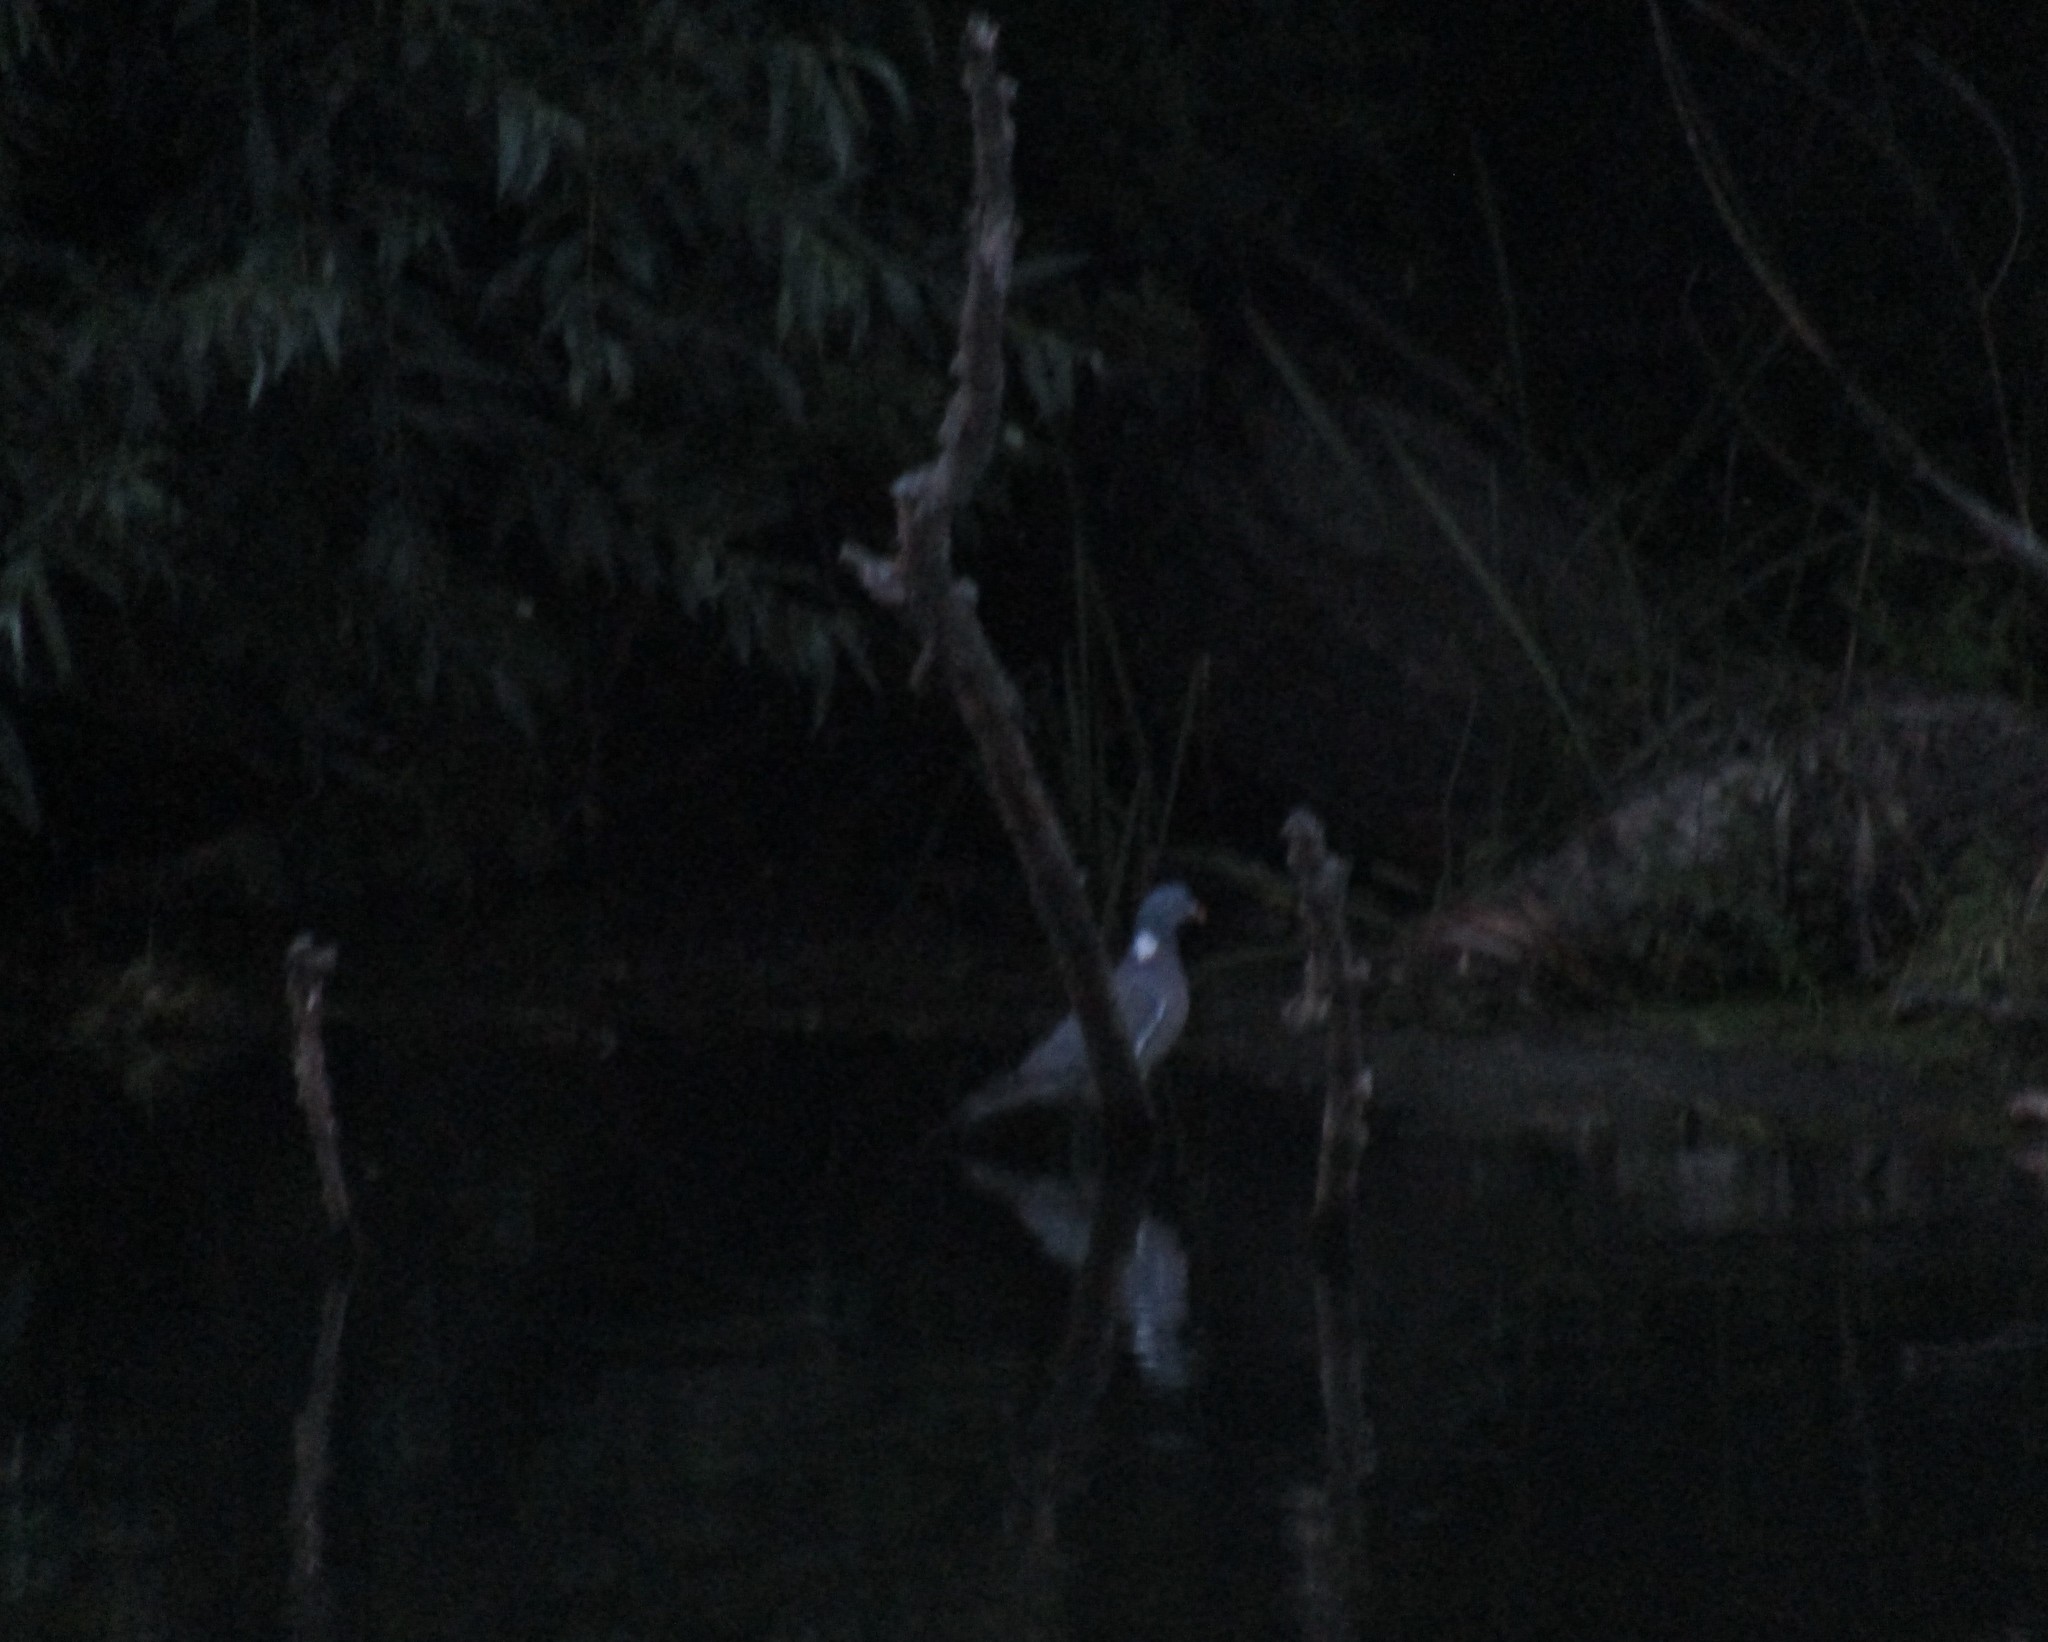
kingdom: Animalia
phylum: Chordata
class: Aves
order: Columbiformes
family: Columbidae
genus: Columba
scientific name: Columba palumbus
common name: Common wood pigeon
